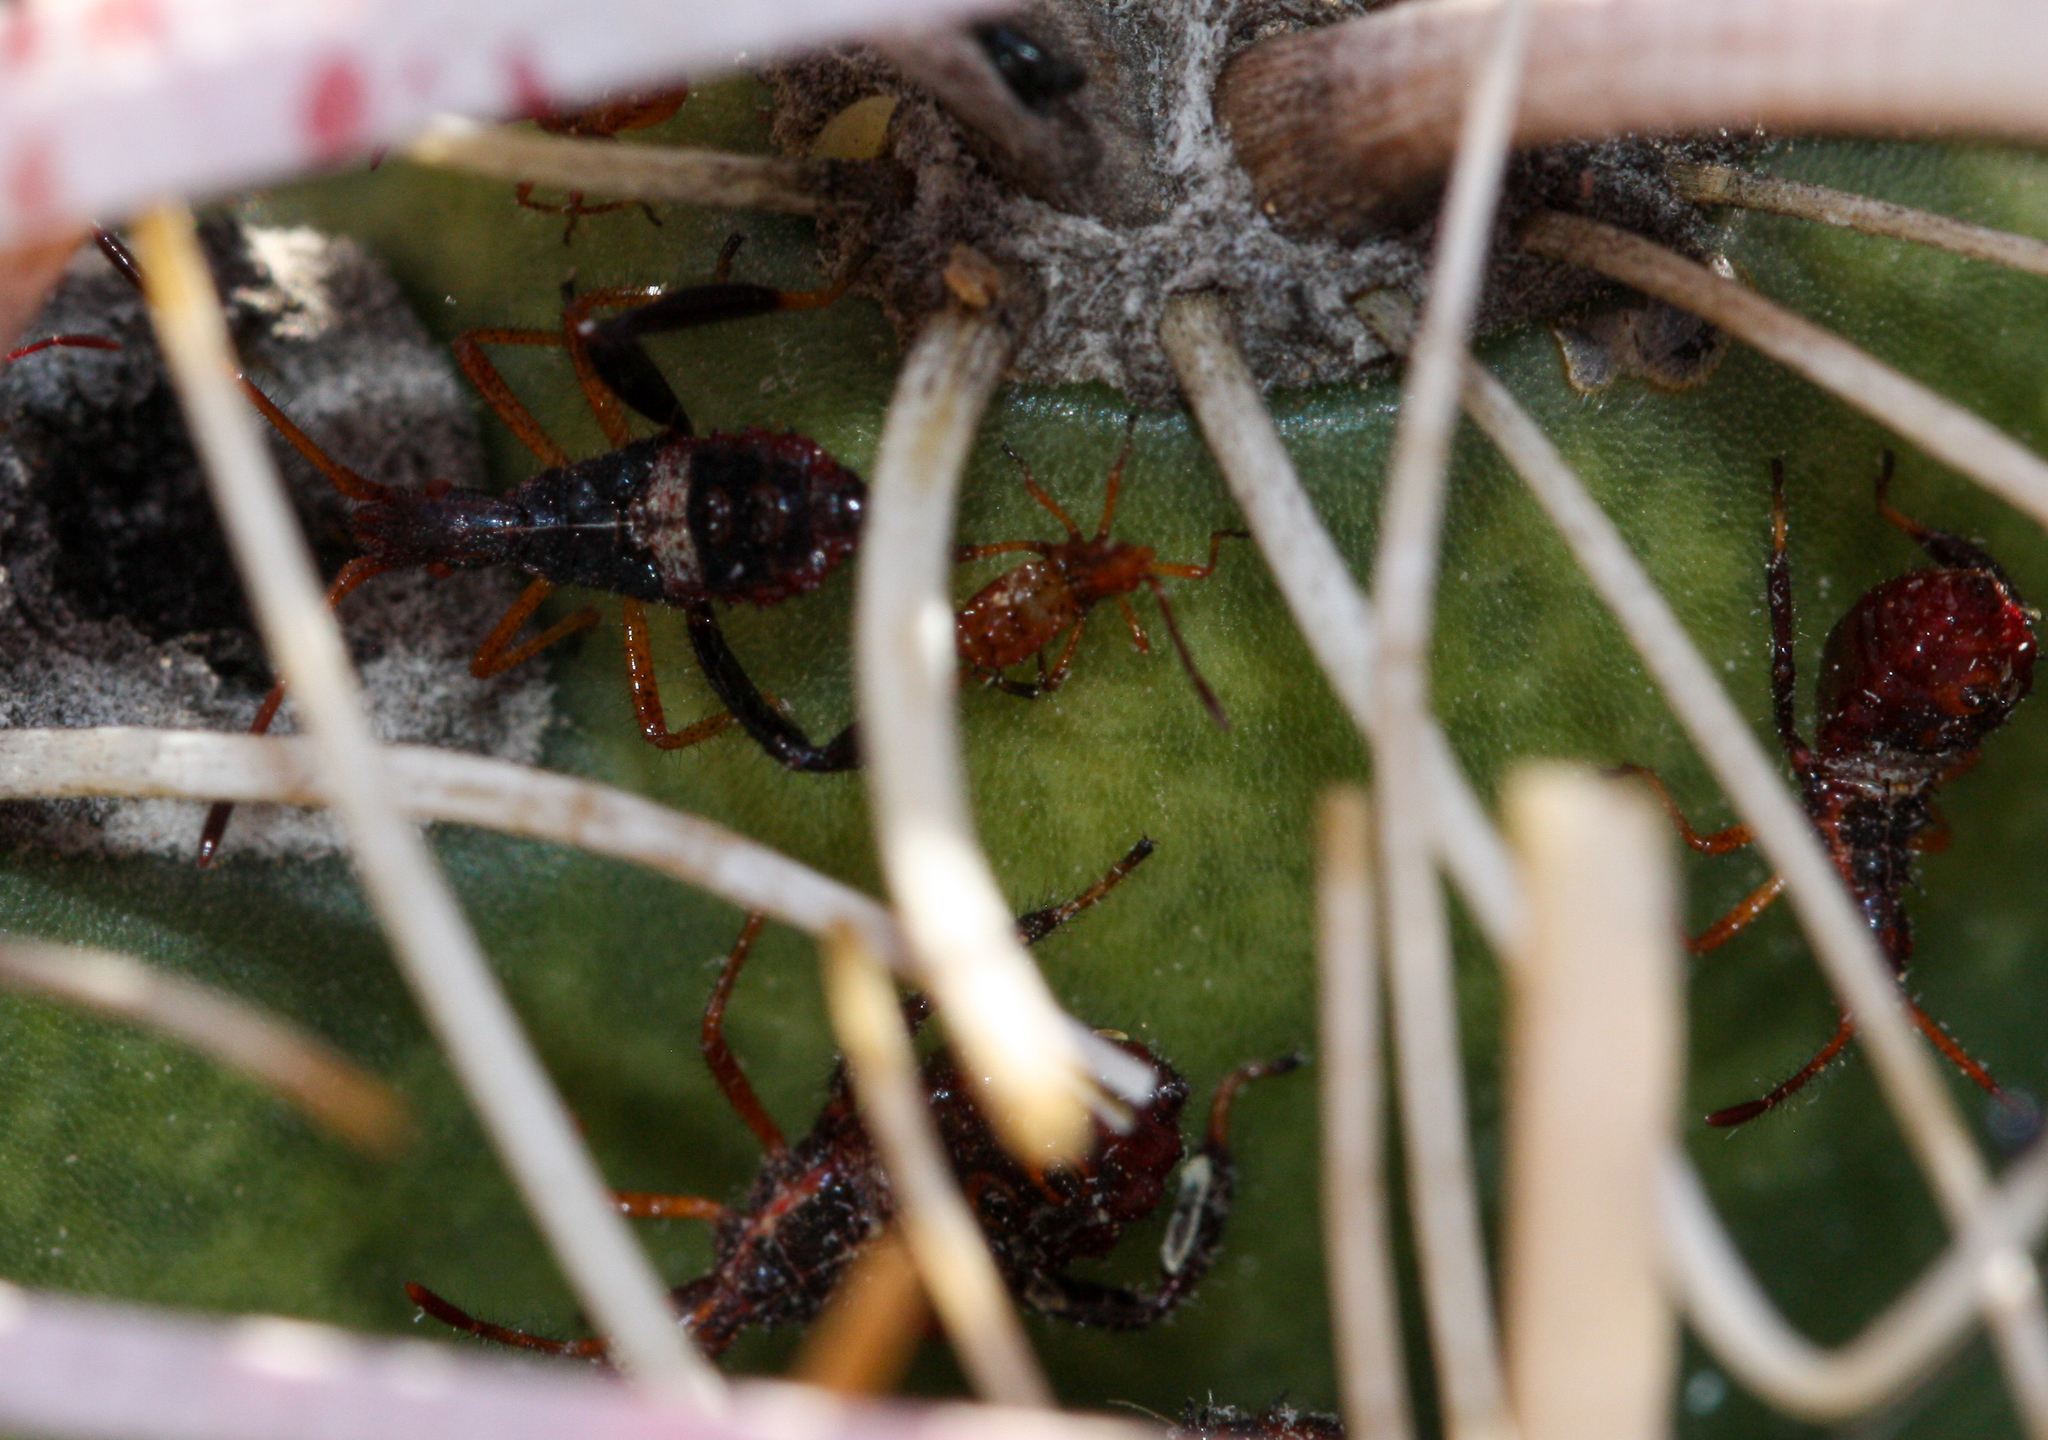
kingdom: Animalia
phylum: Arthropoda
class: Insecta
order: Hemiptera
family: Coreidae
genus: Narnia
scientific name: Narnia wilsoni
